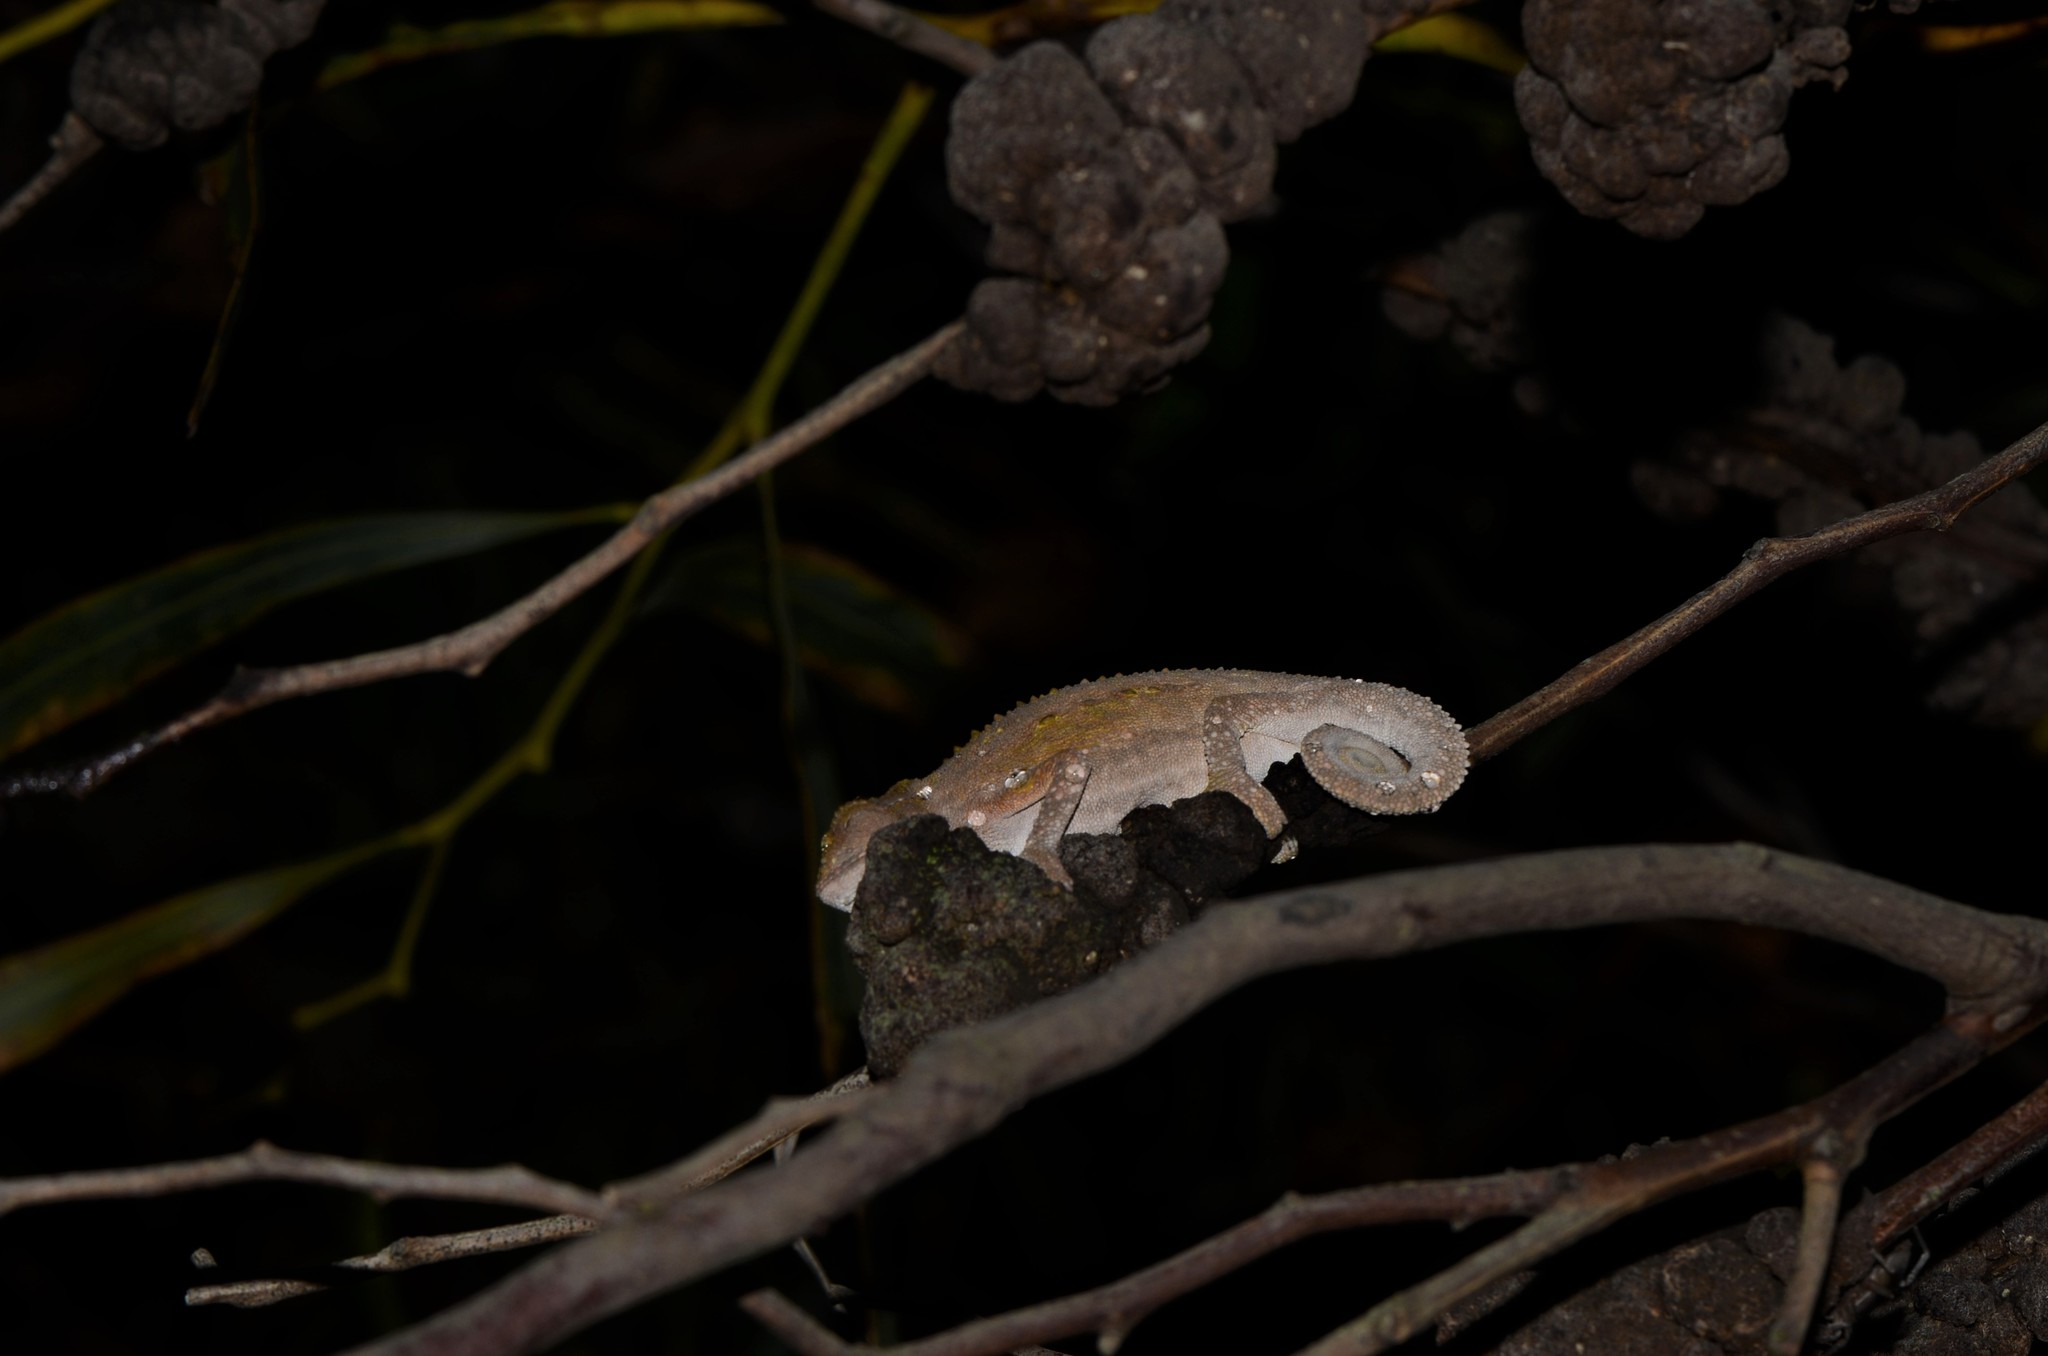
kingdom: Animalia
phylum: Chordata
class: Squamata
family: Chamaeleonidae
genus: Bradypodion
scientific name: Bradypodion pumilum
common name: Cape dwarf chameleon
